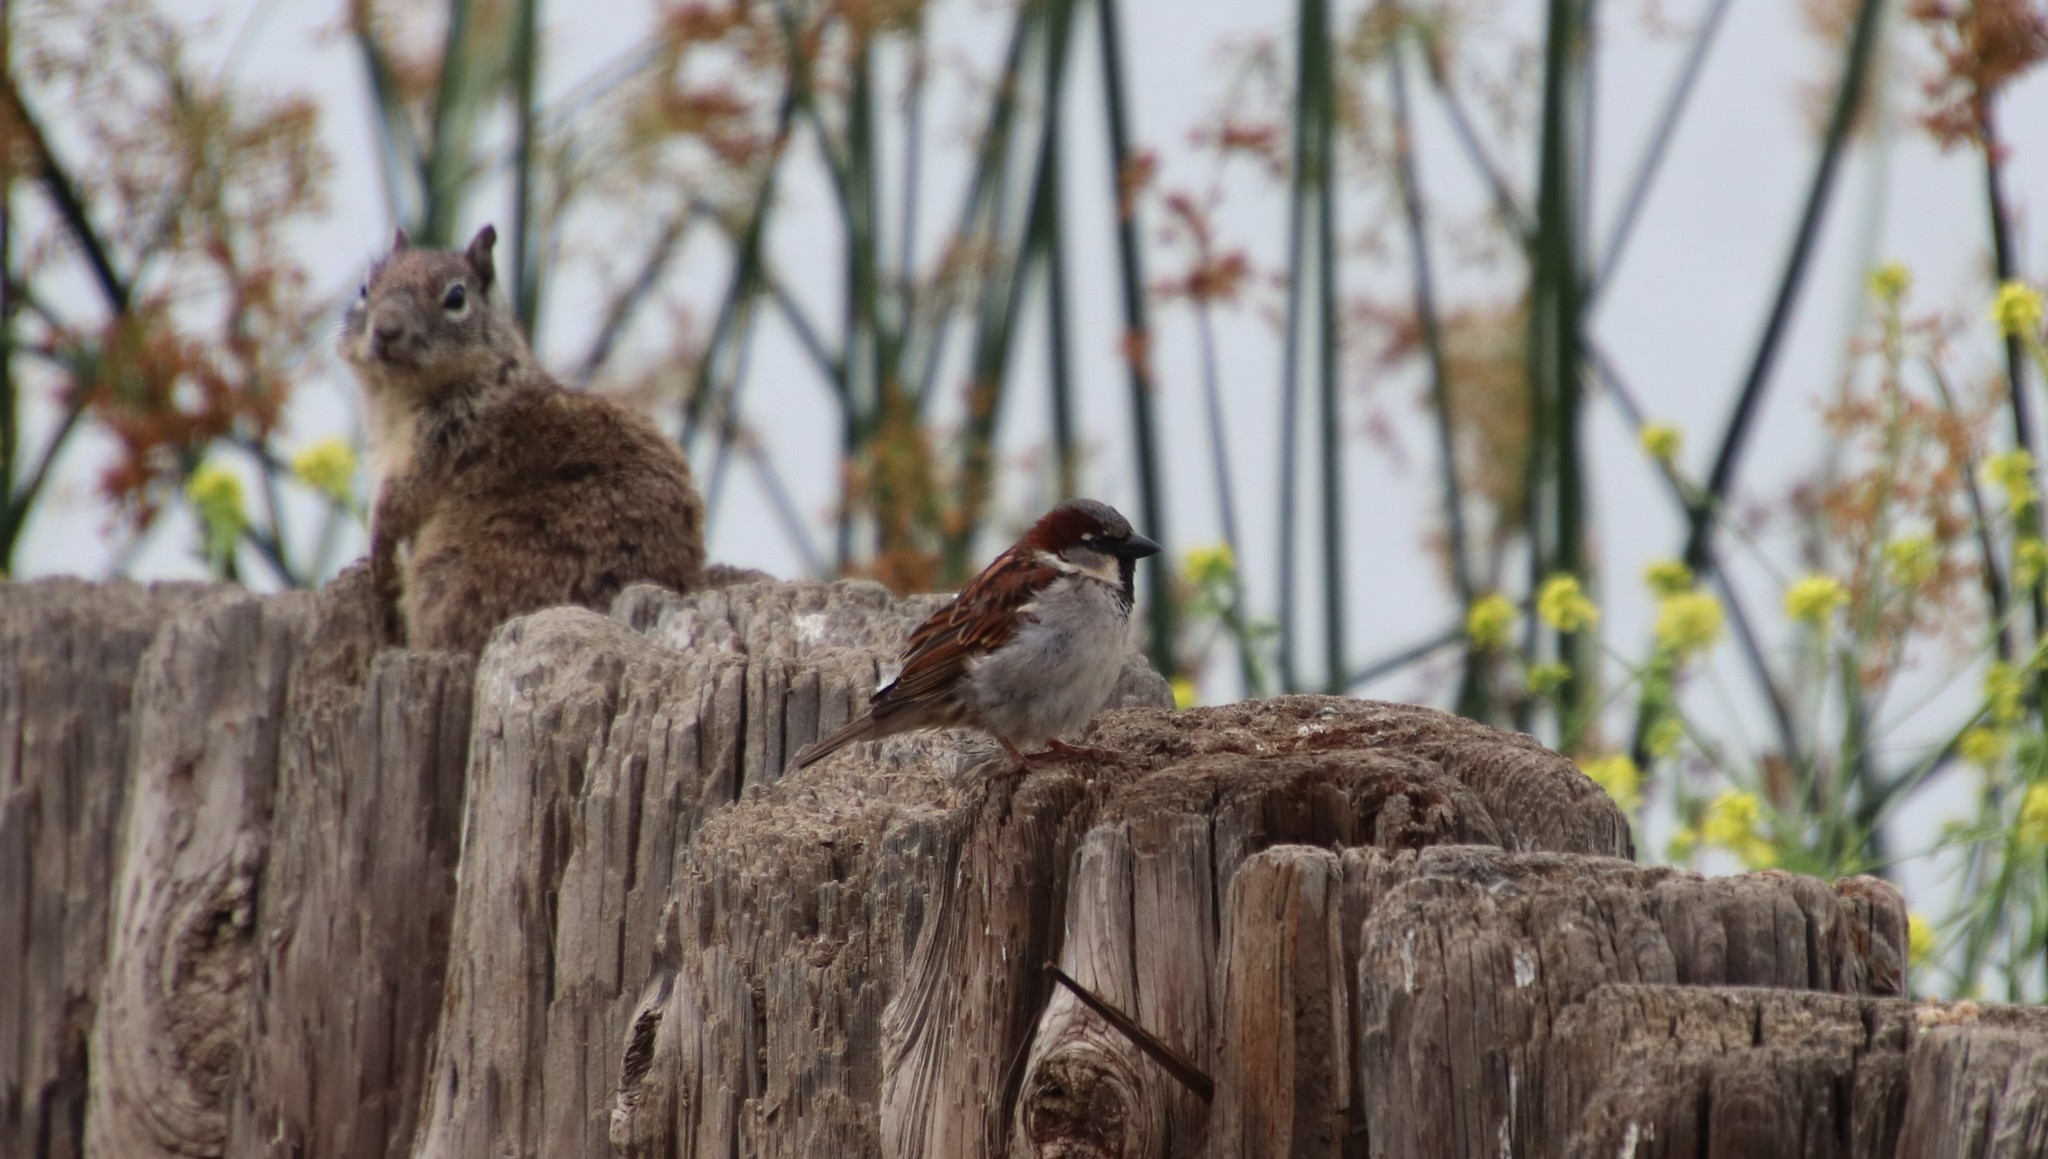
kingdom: Animalia
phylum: Chordata
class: Aves
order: Passeriformes
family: Passeridae
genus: Passer
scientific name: Passer domesticus
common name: House sparrow
